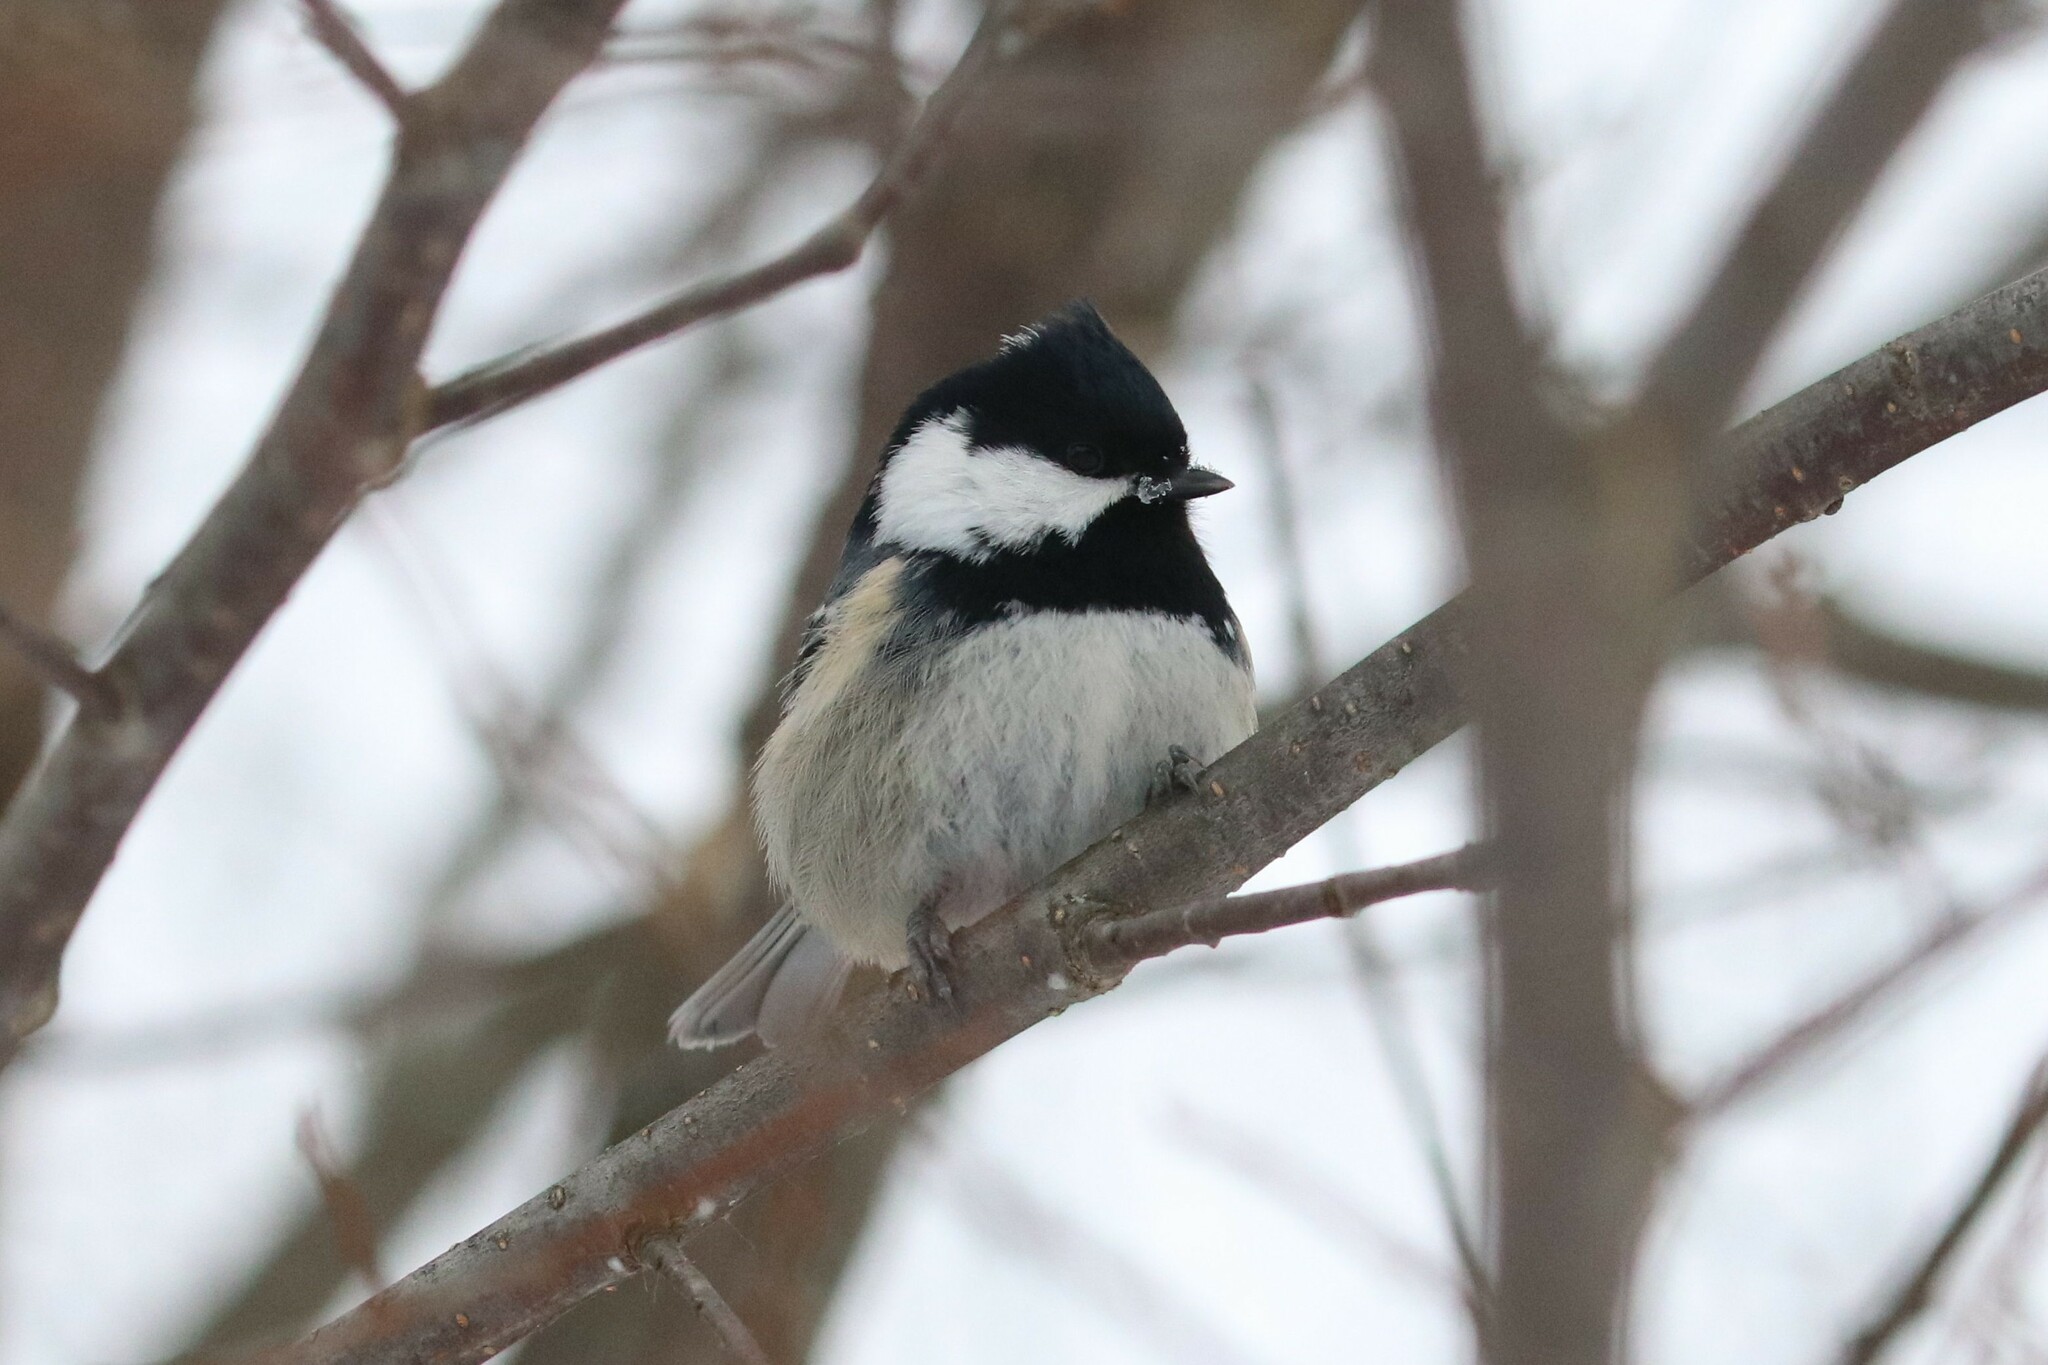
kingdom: Animalia
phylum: Chordata
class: Aves
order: Passeriformes
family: Paridae
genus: Periparus
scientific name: Periparus ater
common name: Coal tit
